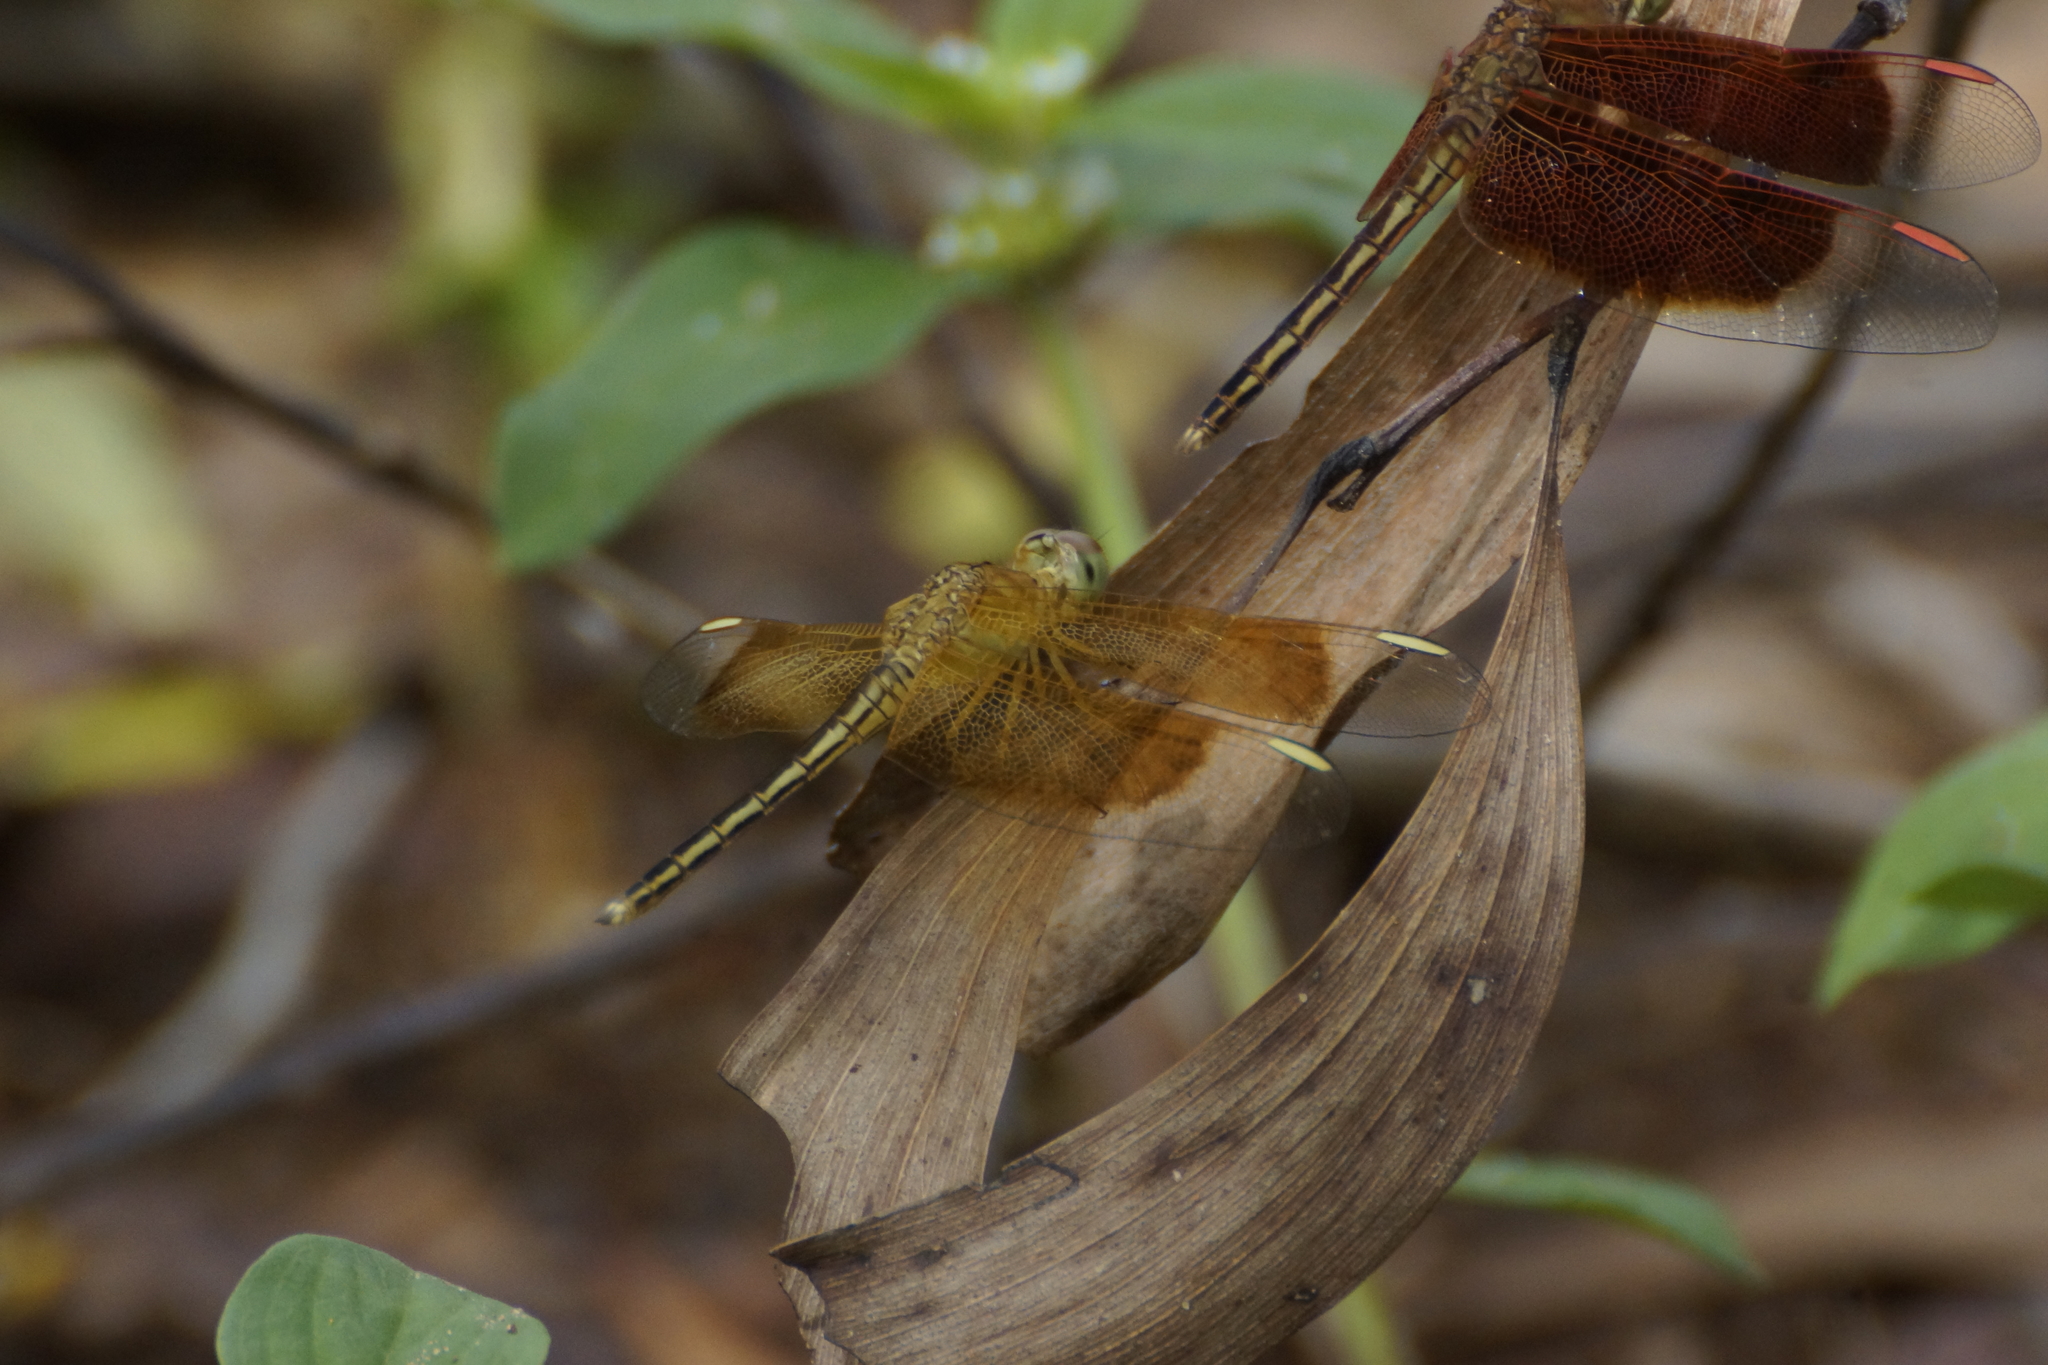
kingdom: Animalia
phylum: Arthropoda
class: Insecta
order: Odonata
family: Libellulidae
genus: Neurothemis
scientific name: Neurothemis stigmatizans
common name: Painted grasshawk
